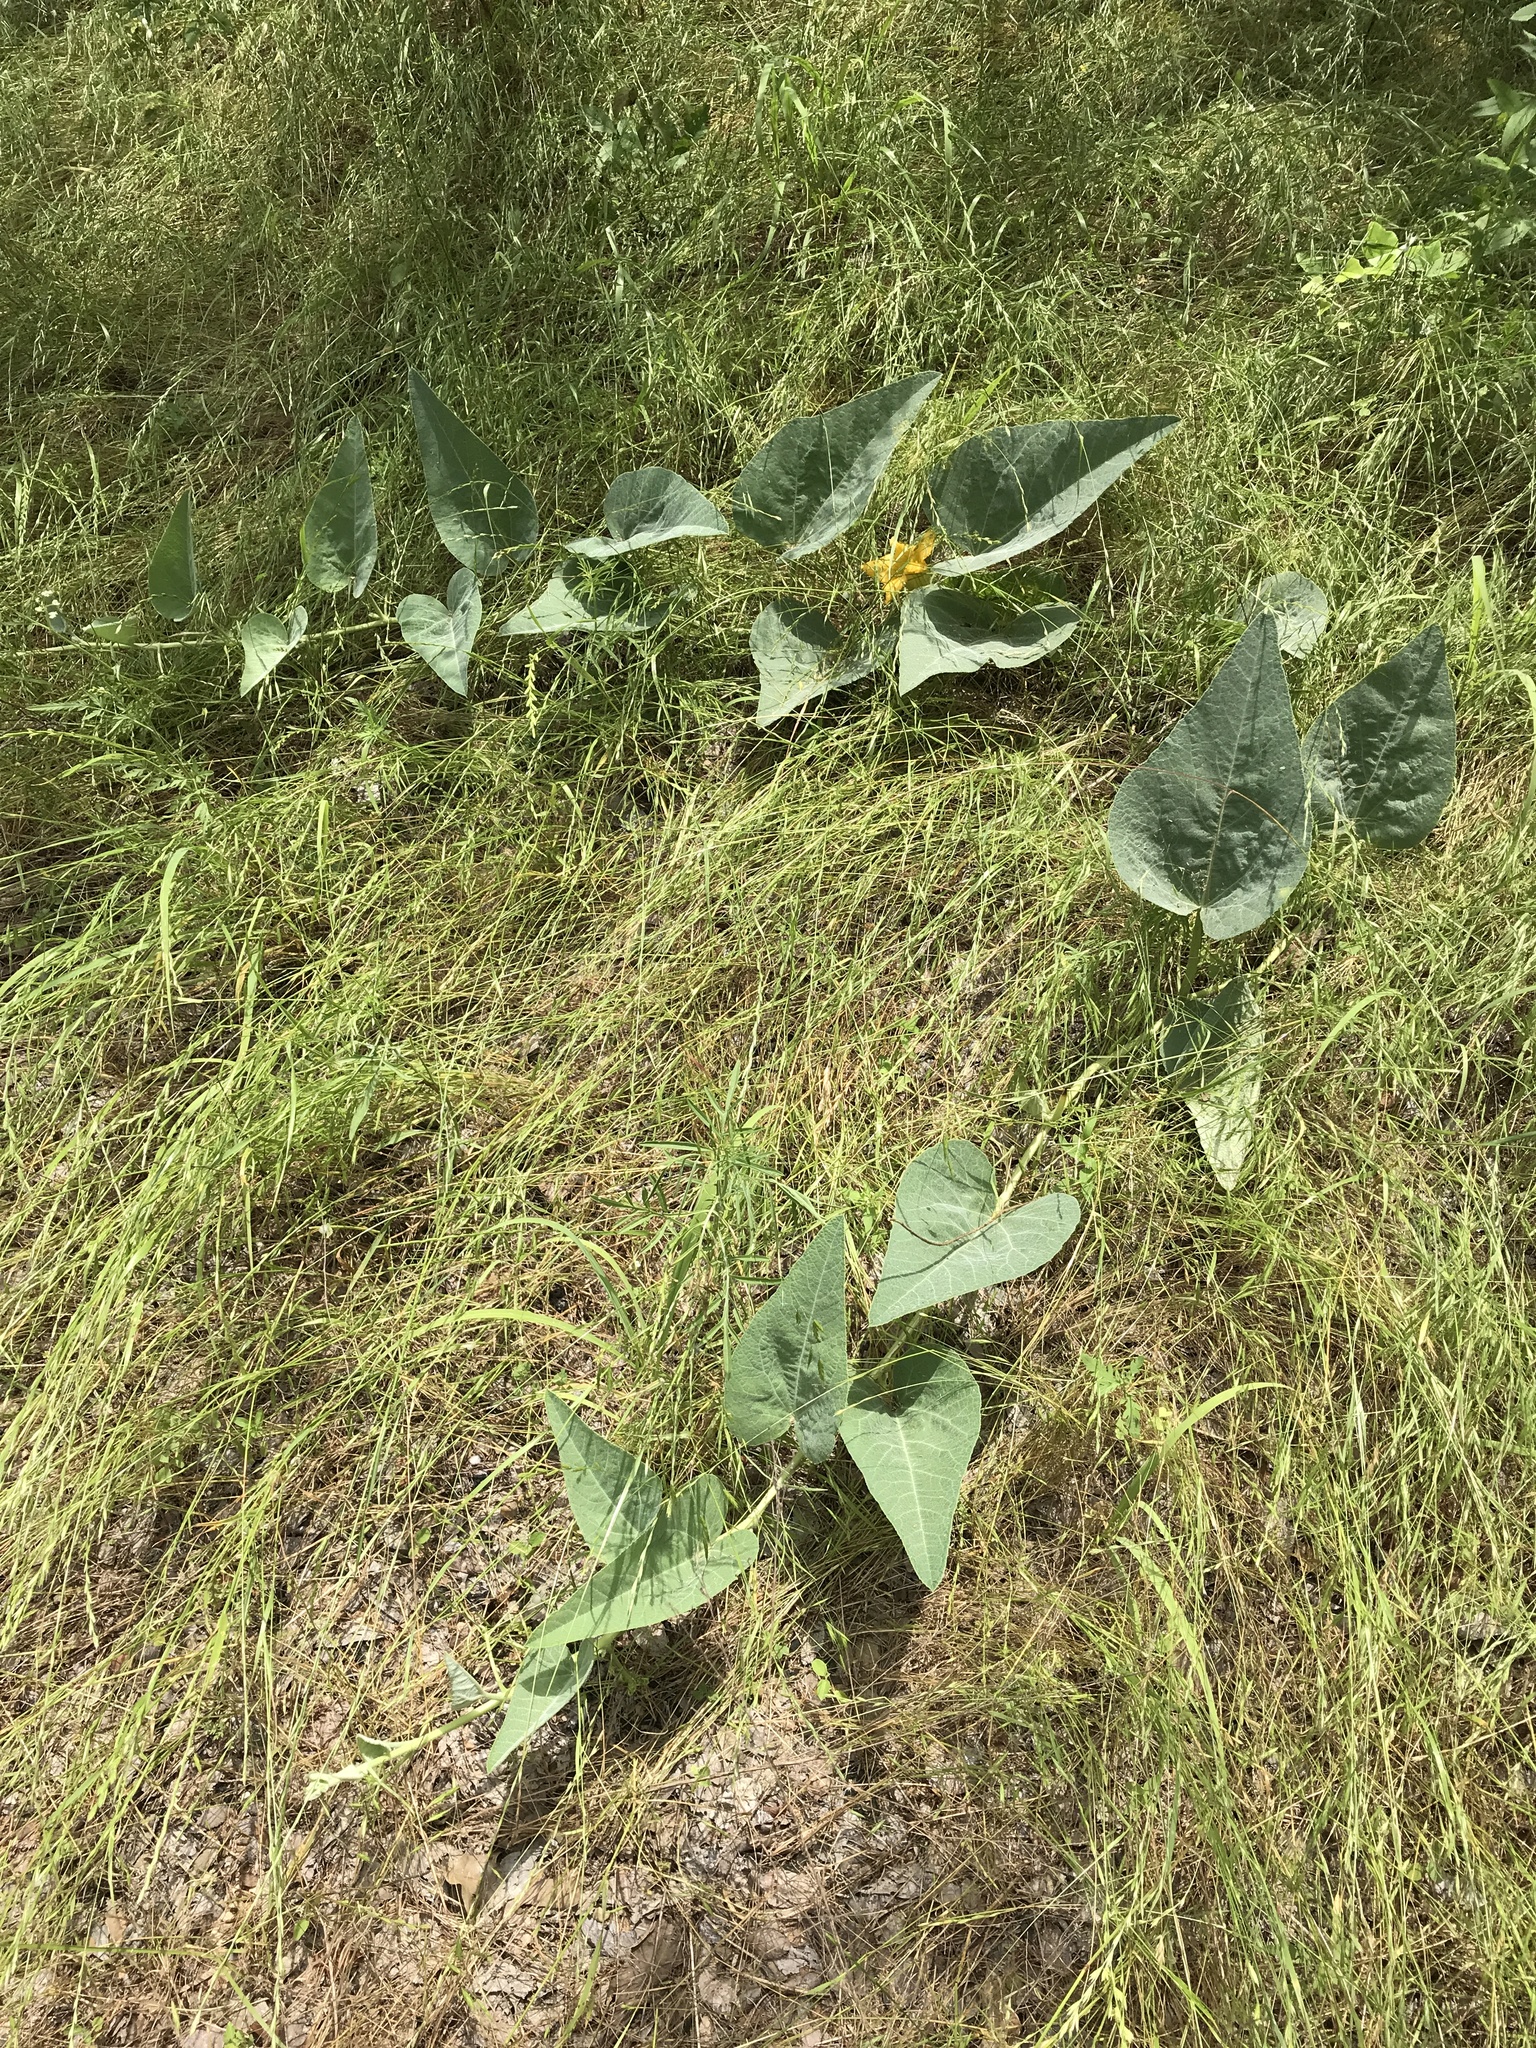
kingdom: Plantae
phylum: Tracheophyta
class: Magnoliopsida
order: Cucurbitales
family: Cucurbitaceae
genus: Cucurbita
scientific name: Cucurbita foetidissima
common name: Buffalo gourd
